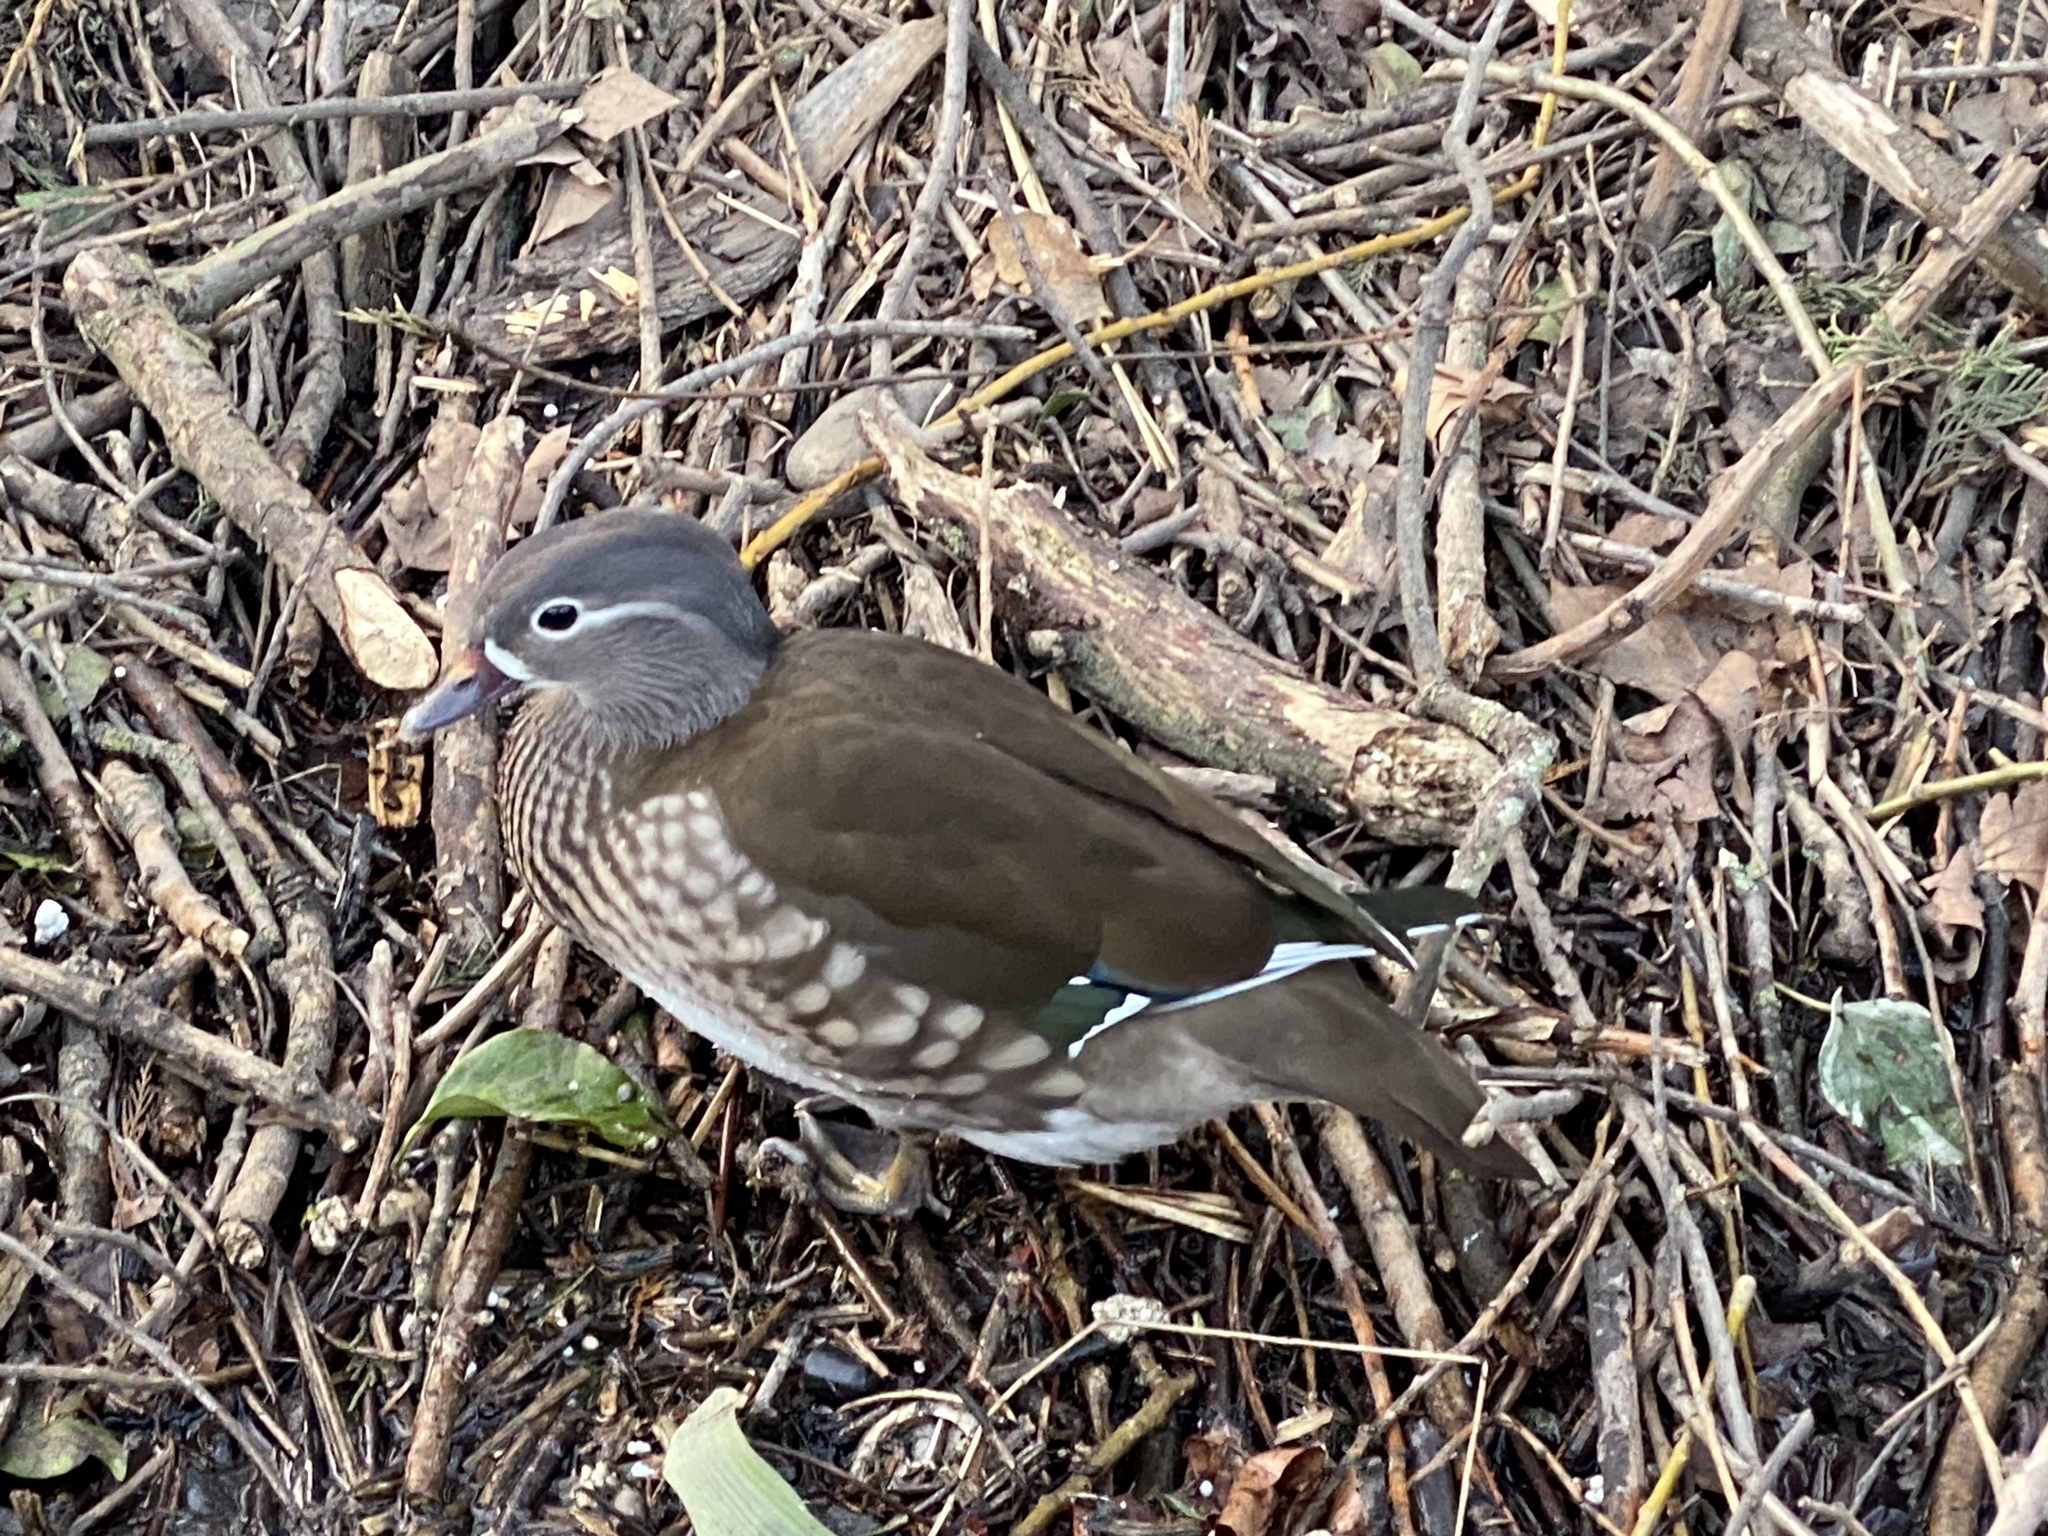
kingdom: Animalia
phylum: Chordata
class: Aves
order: Anseriformes
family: Anatidae
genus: Aix
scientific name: Aix galericulata
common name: Mandarin duck
